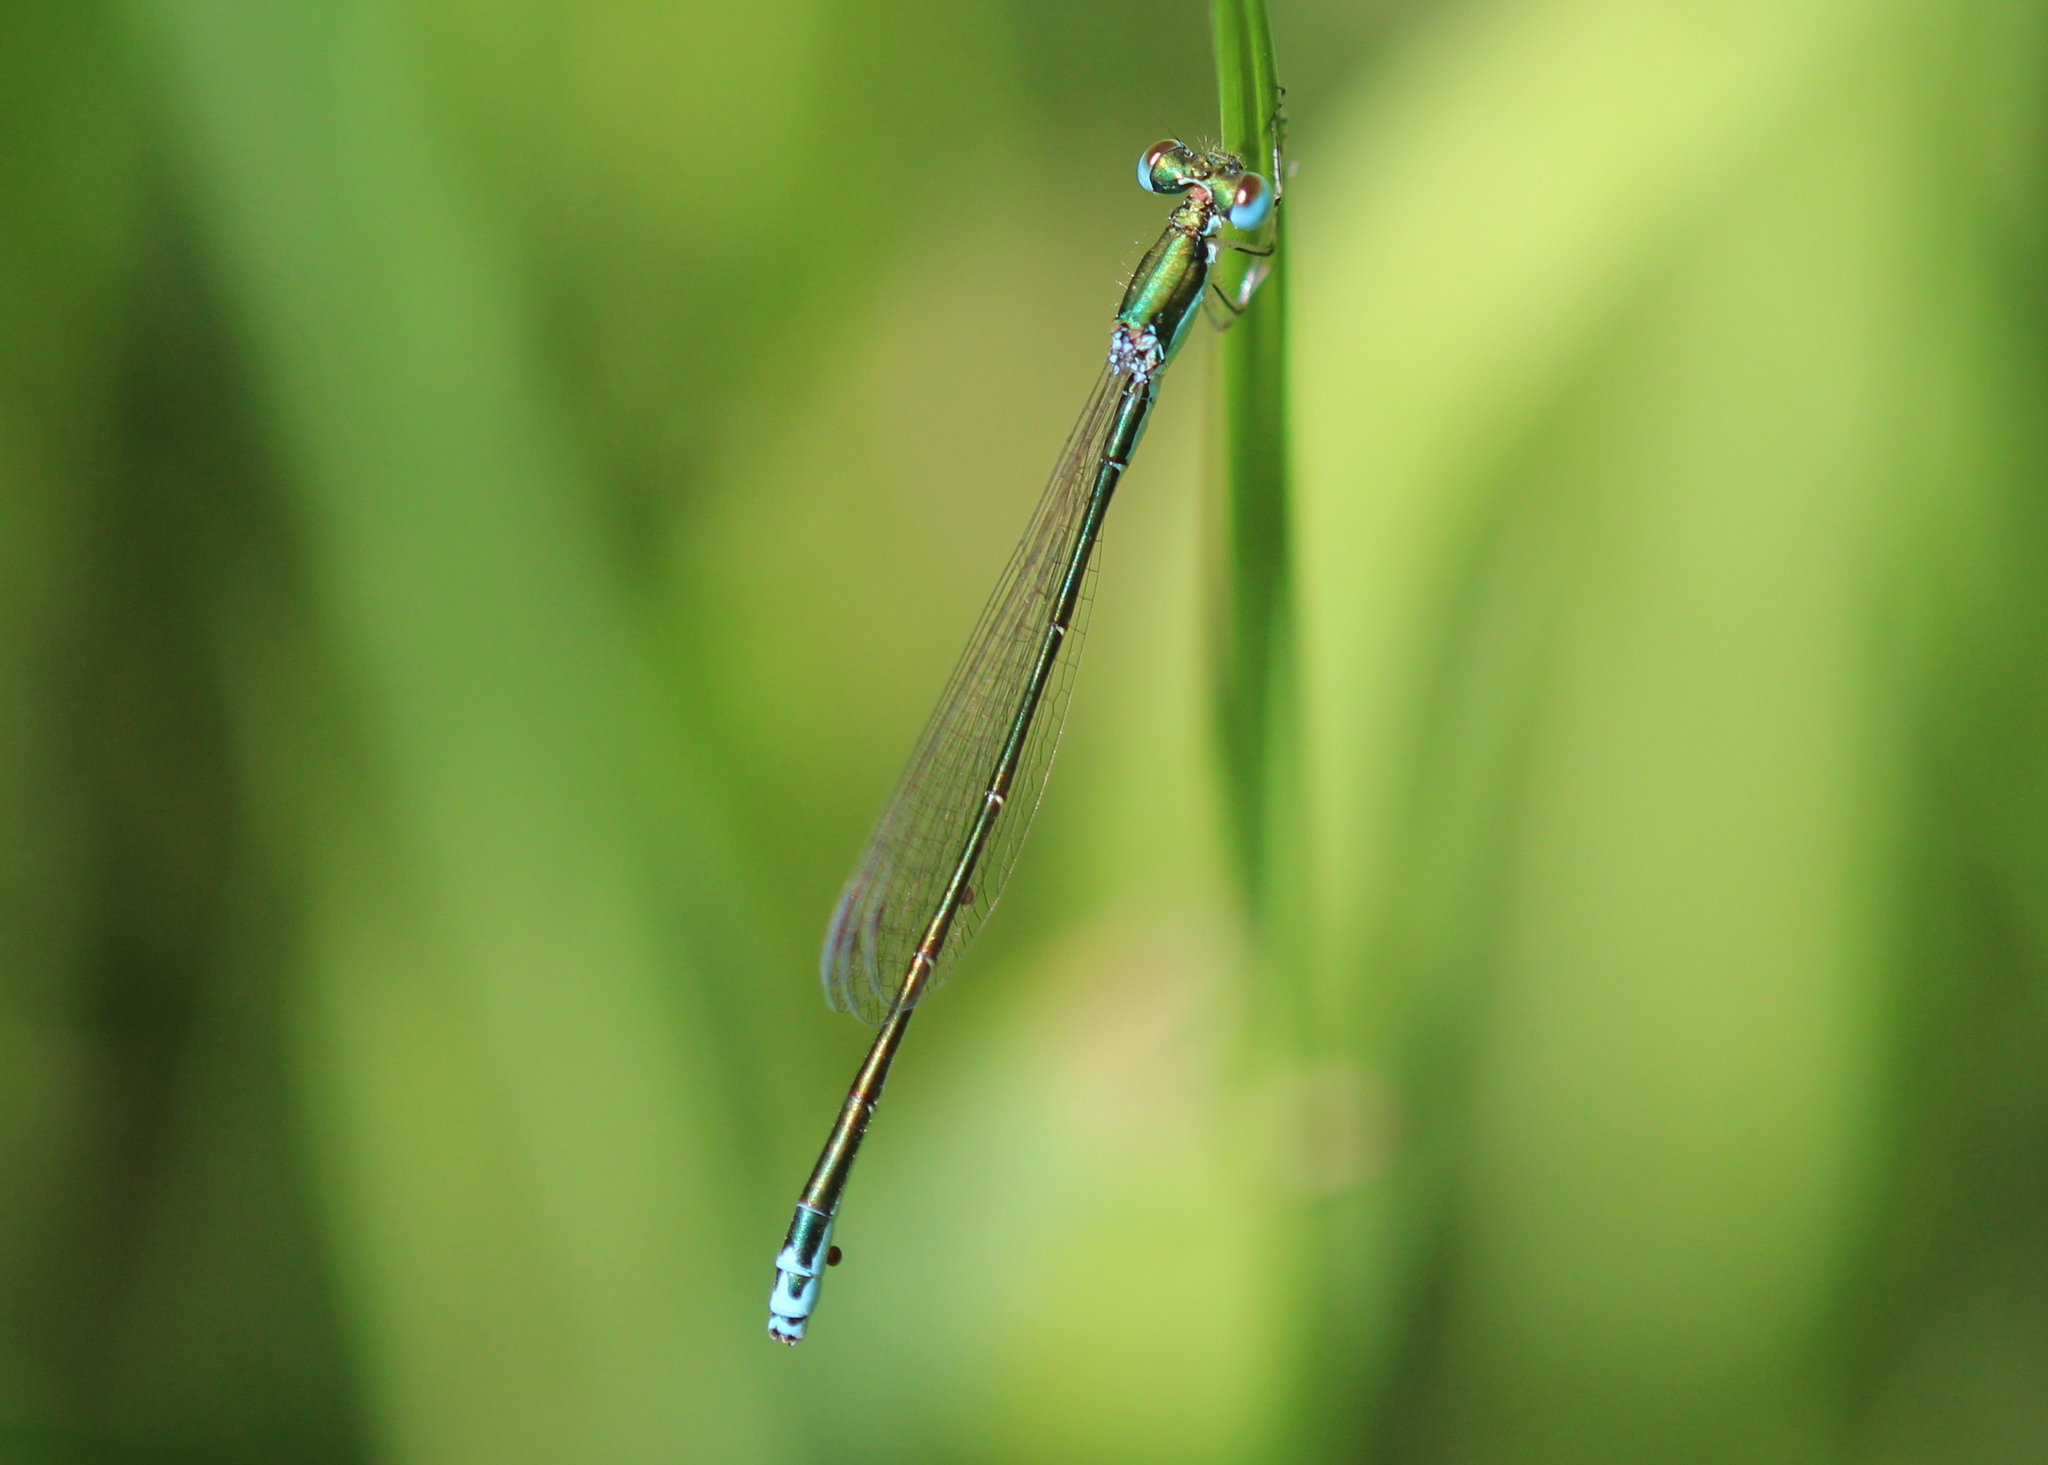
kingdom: Animalia
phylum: Arthropoda
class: Insecta
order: Odonata
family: Coenagrionidae
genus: Nehalennia
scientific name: Nehalennia irene
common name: Sedge sprite
